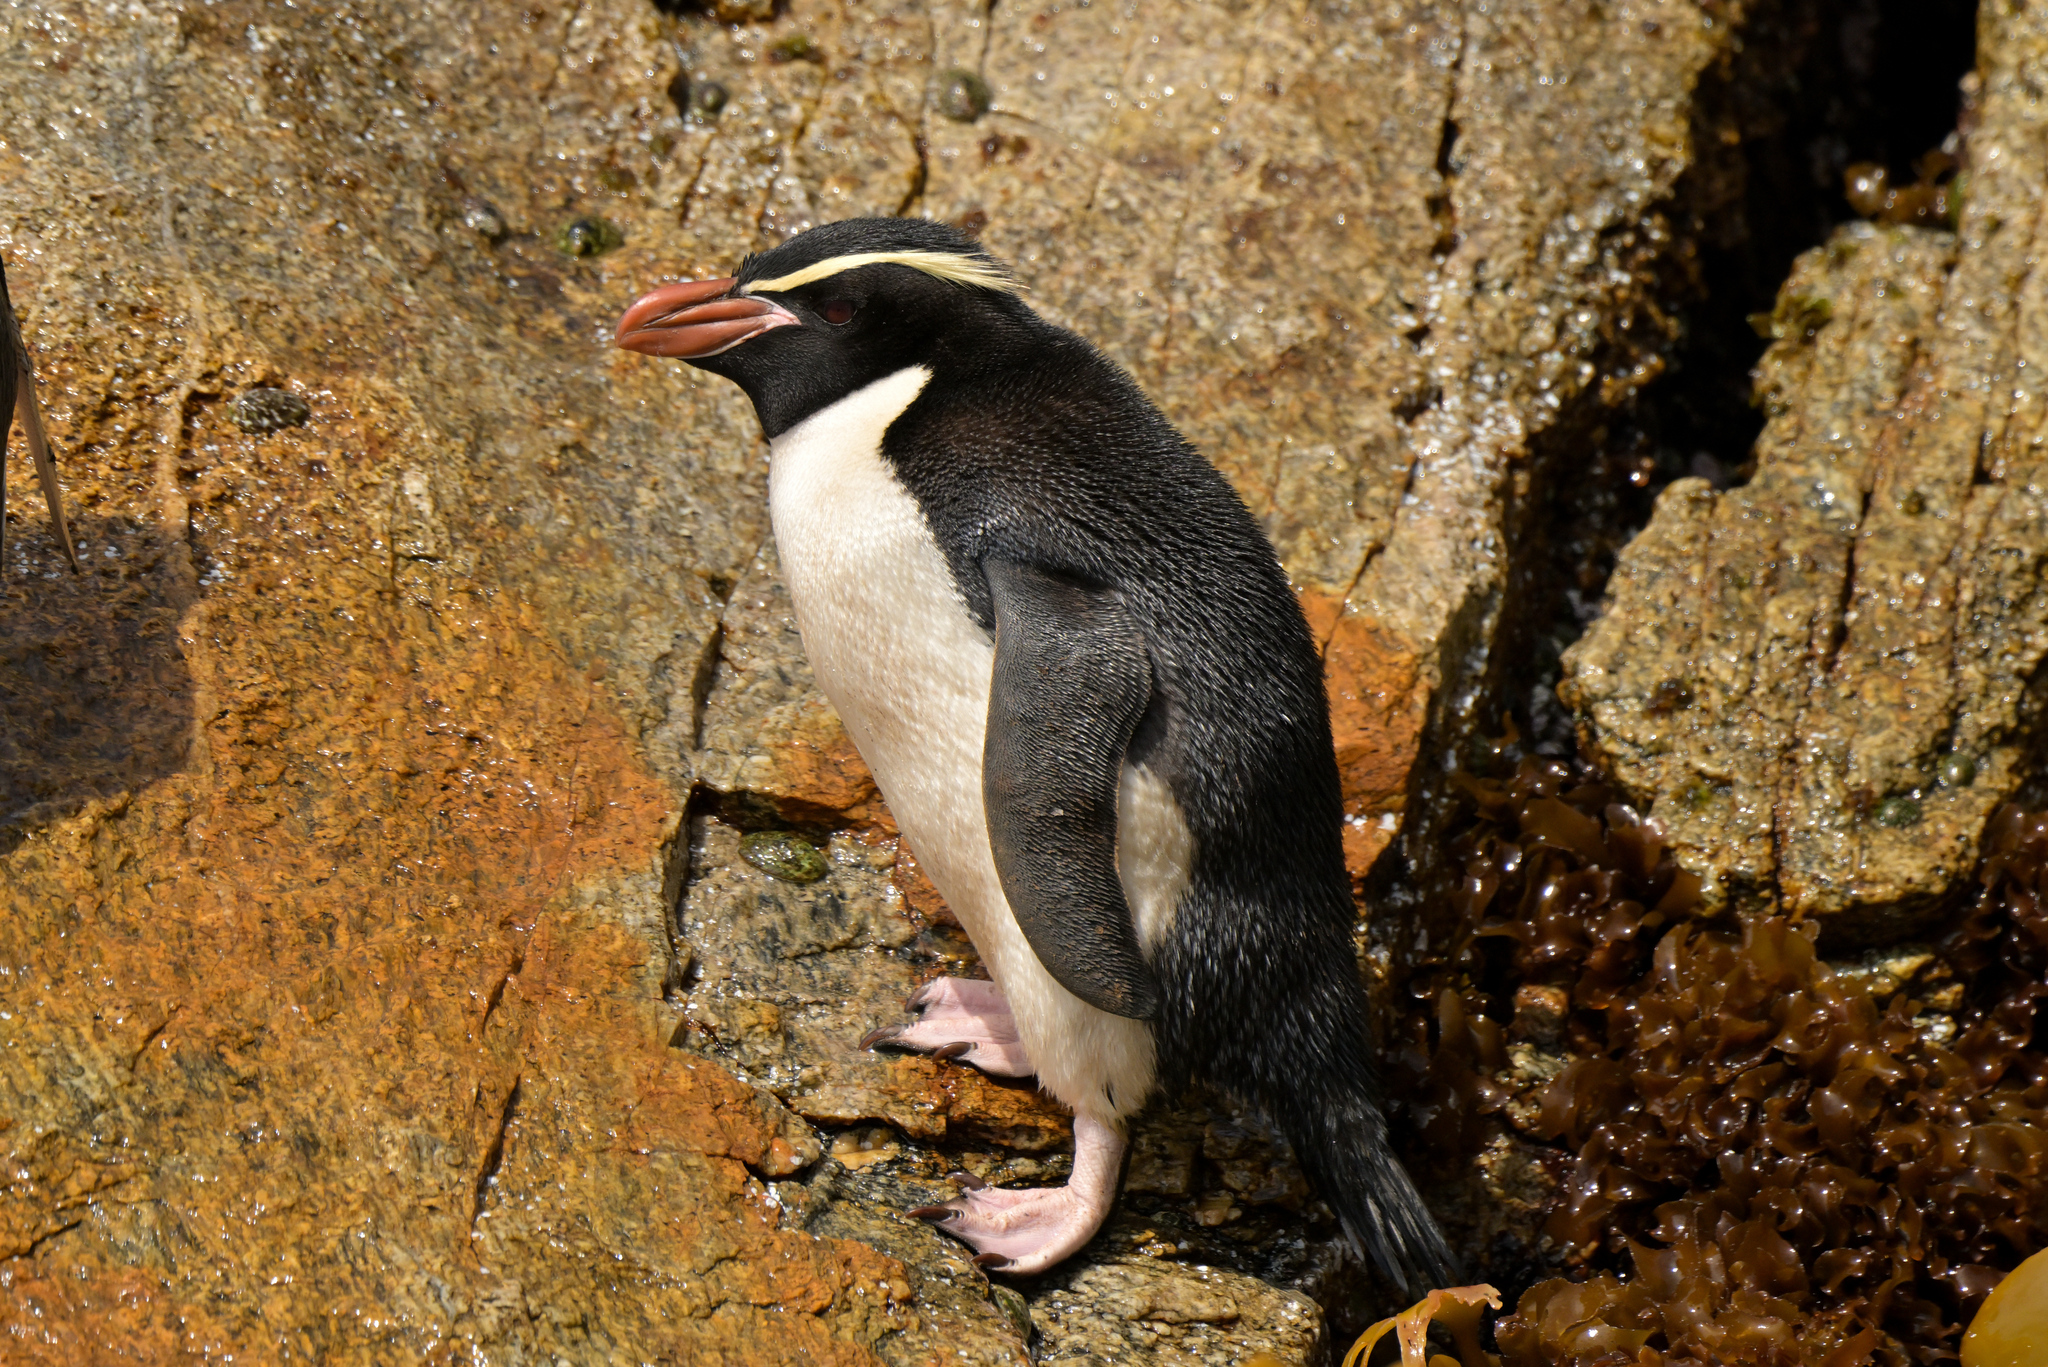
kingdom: Animalia
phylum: Chordata
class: Aves
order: Sphenisciformes
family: Spheniscidae
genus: Eudyptes
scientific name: Eudyptes robustus
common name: Snares penguin
